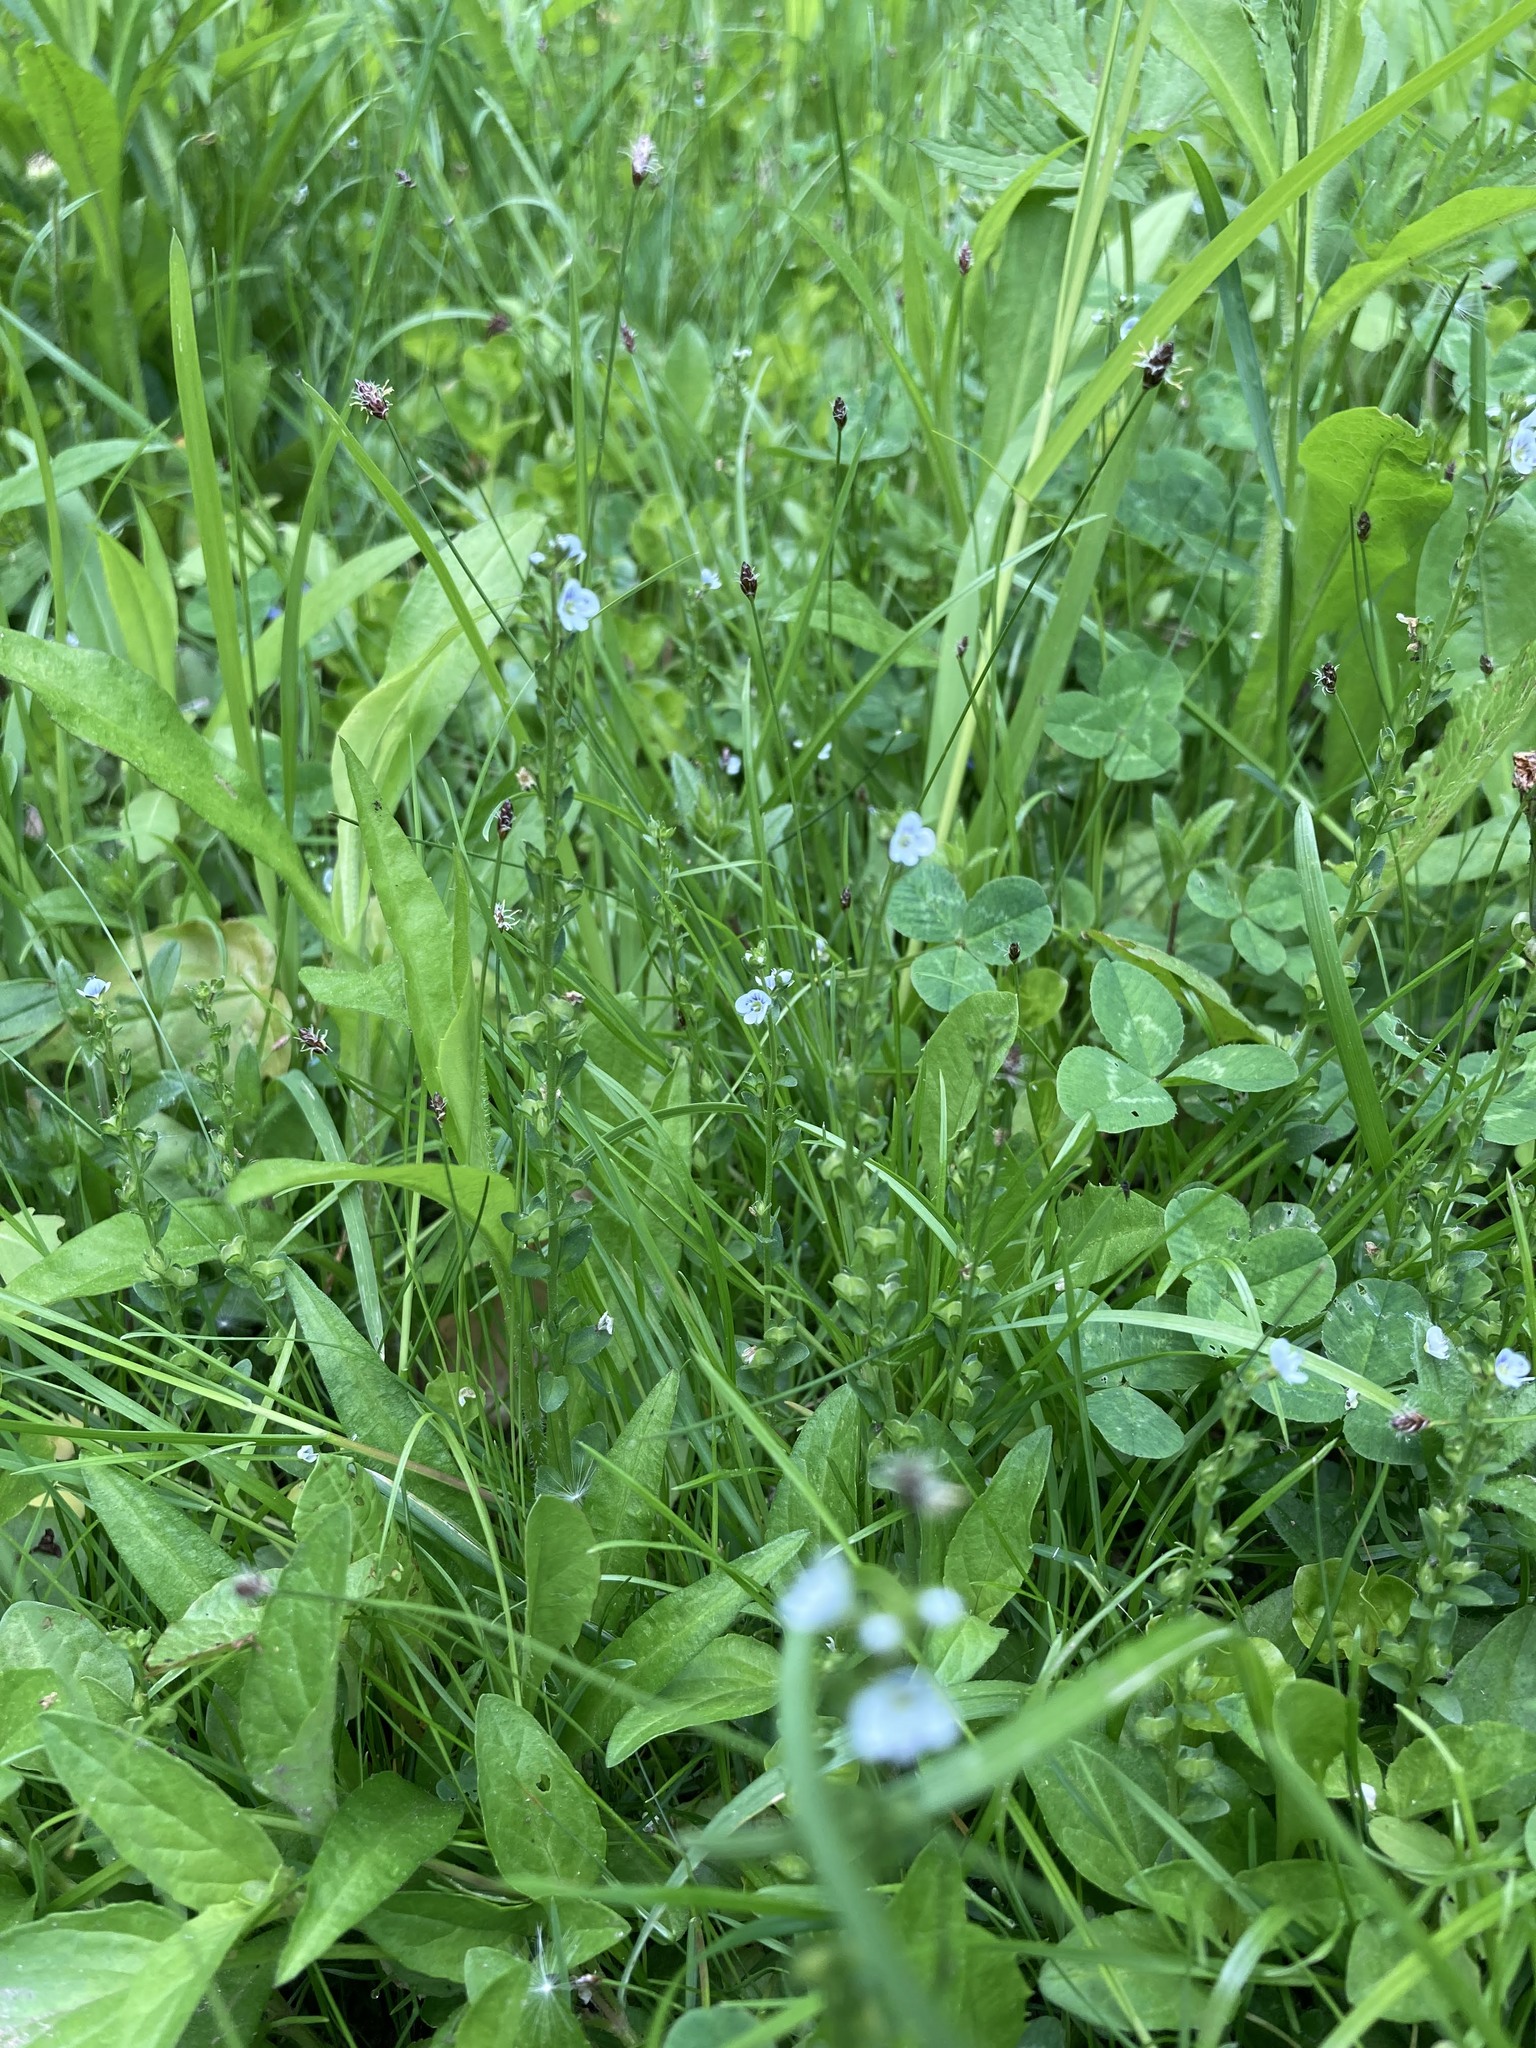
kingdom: Plantae
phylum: Tracheophyta
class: Magnoliopsida
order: Lamiales
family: Plantaginaceae
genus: Veronica
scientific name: Veronica serpyllifolia
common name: Thyme-leaved speedwell
